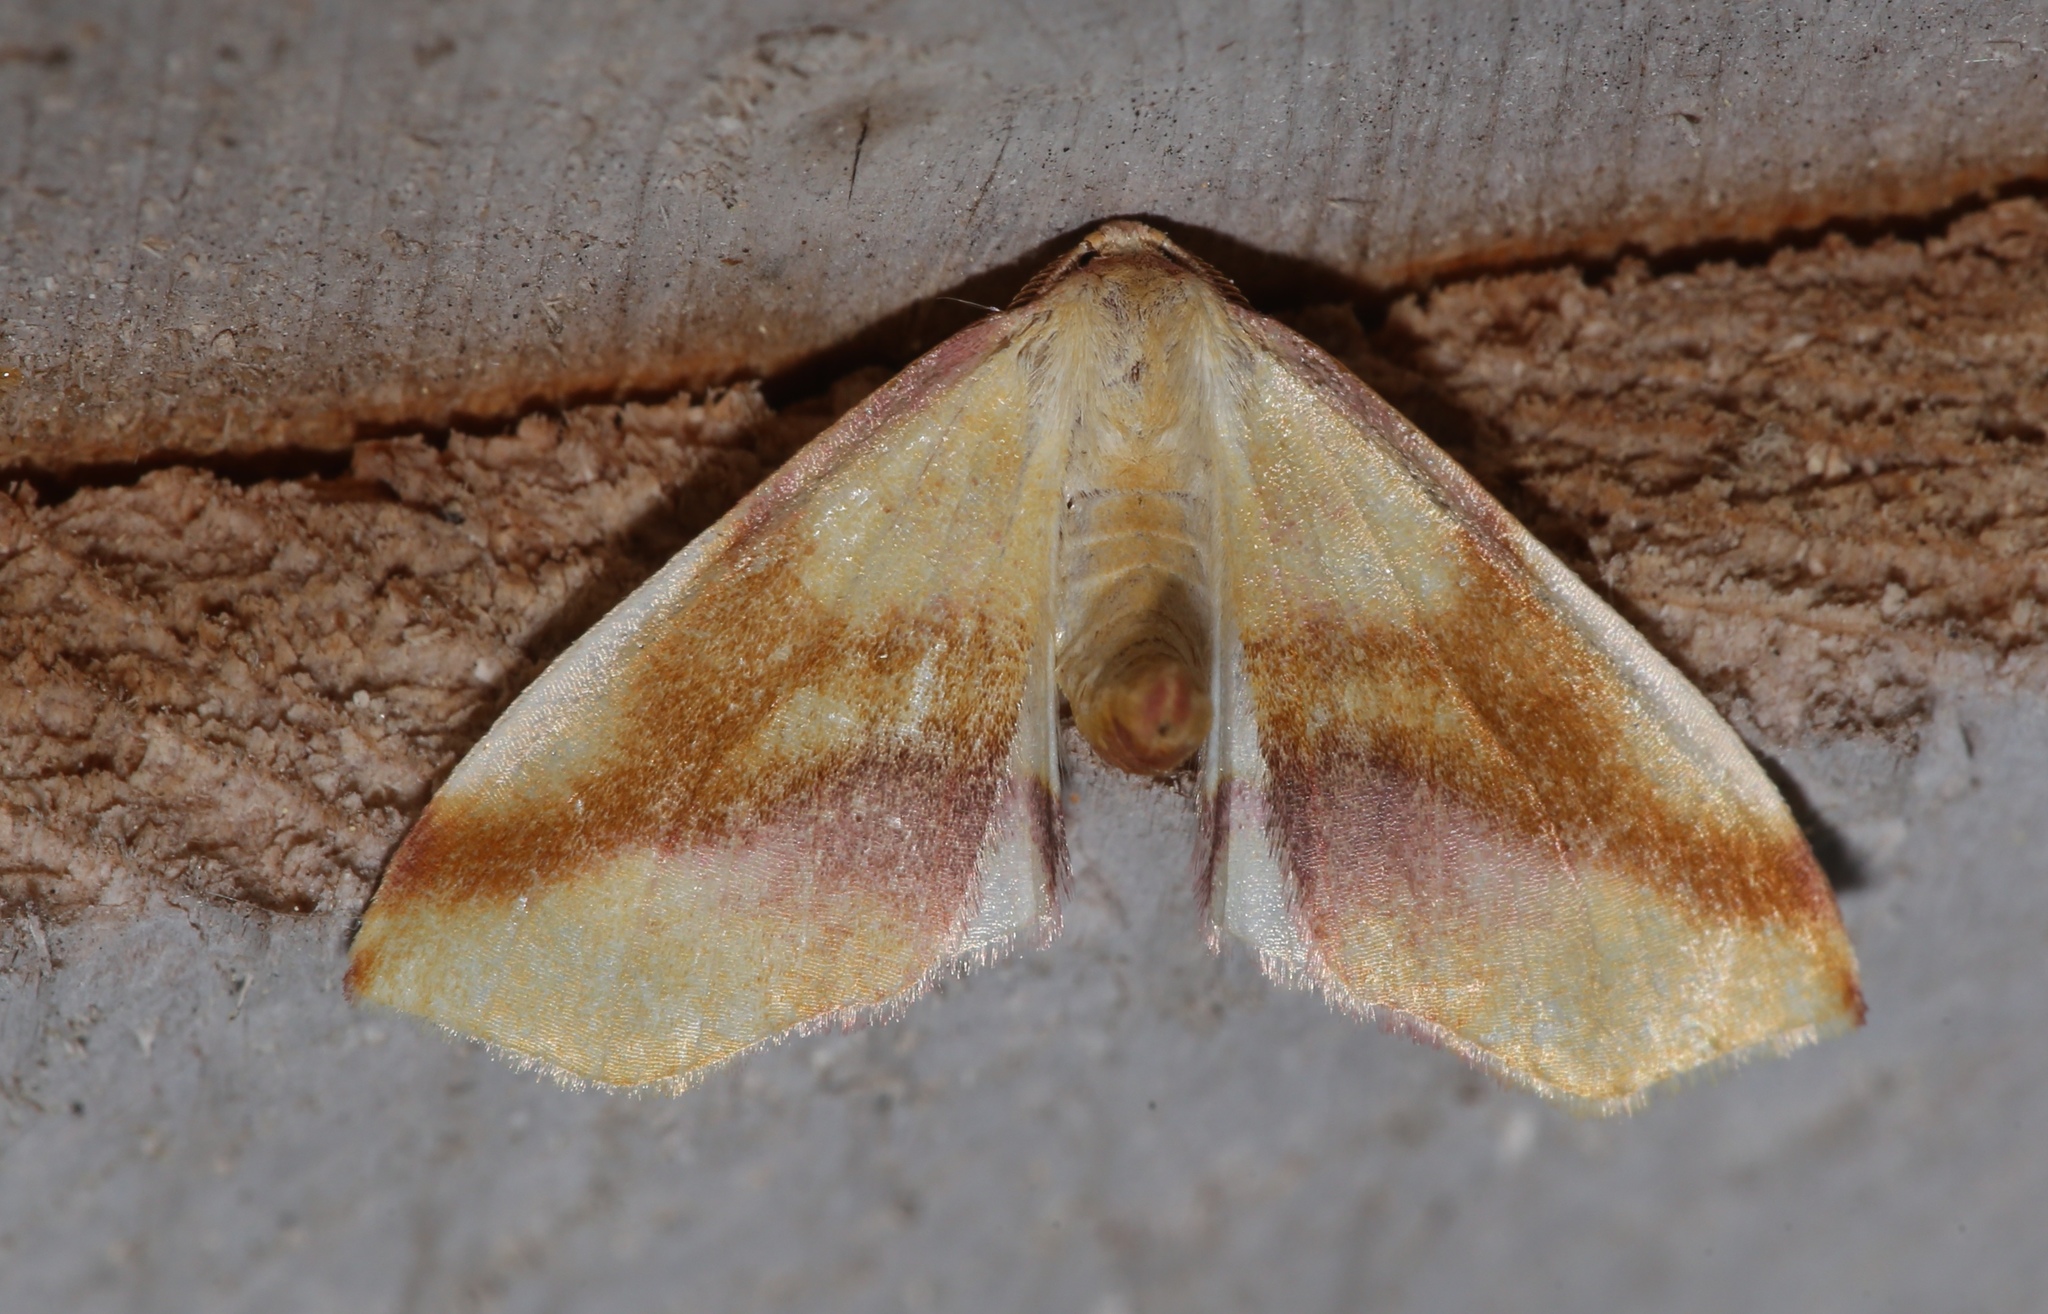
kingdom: Animalia
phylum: Arthropoda
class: Insecta
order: Lepidoptera
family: Geometridae
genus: Plagodis
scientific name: Plagodis serinaria
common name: Lemon plagodis
